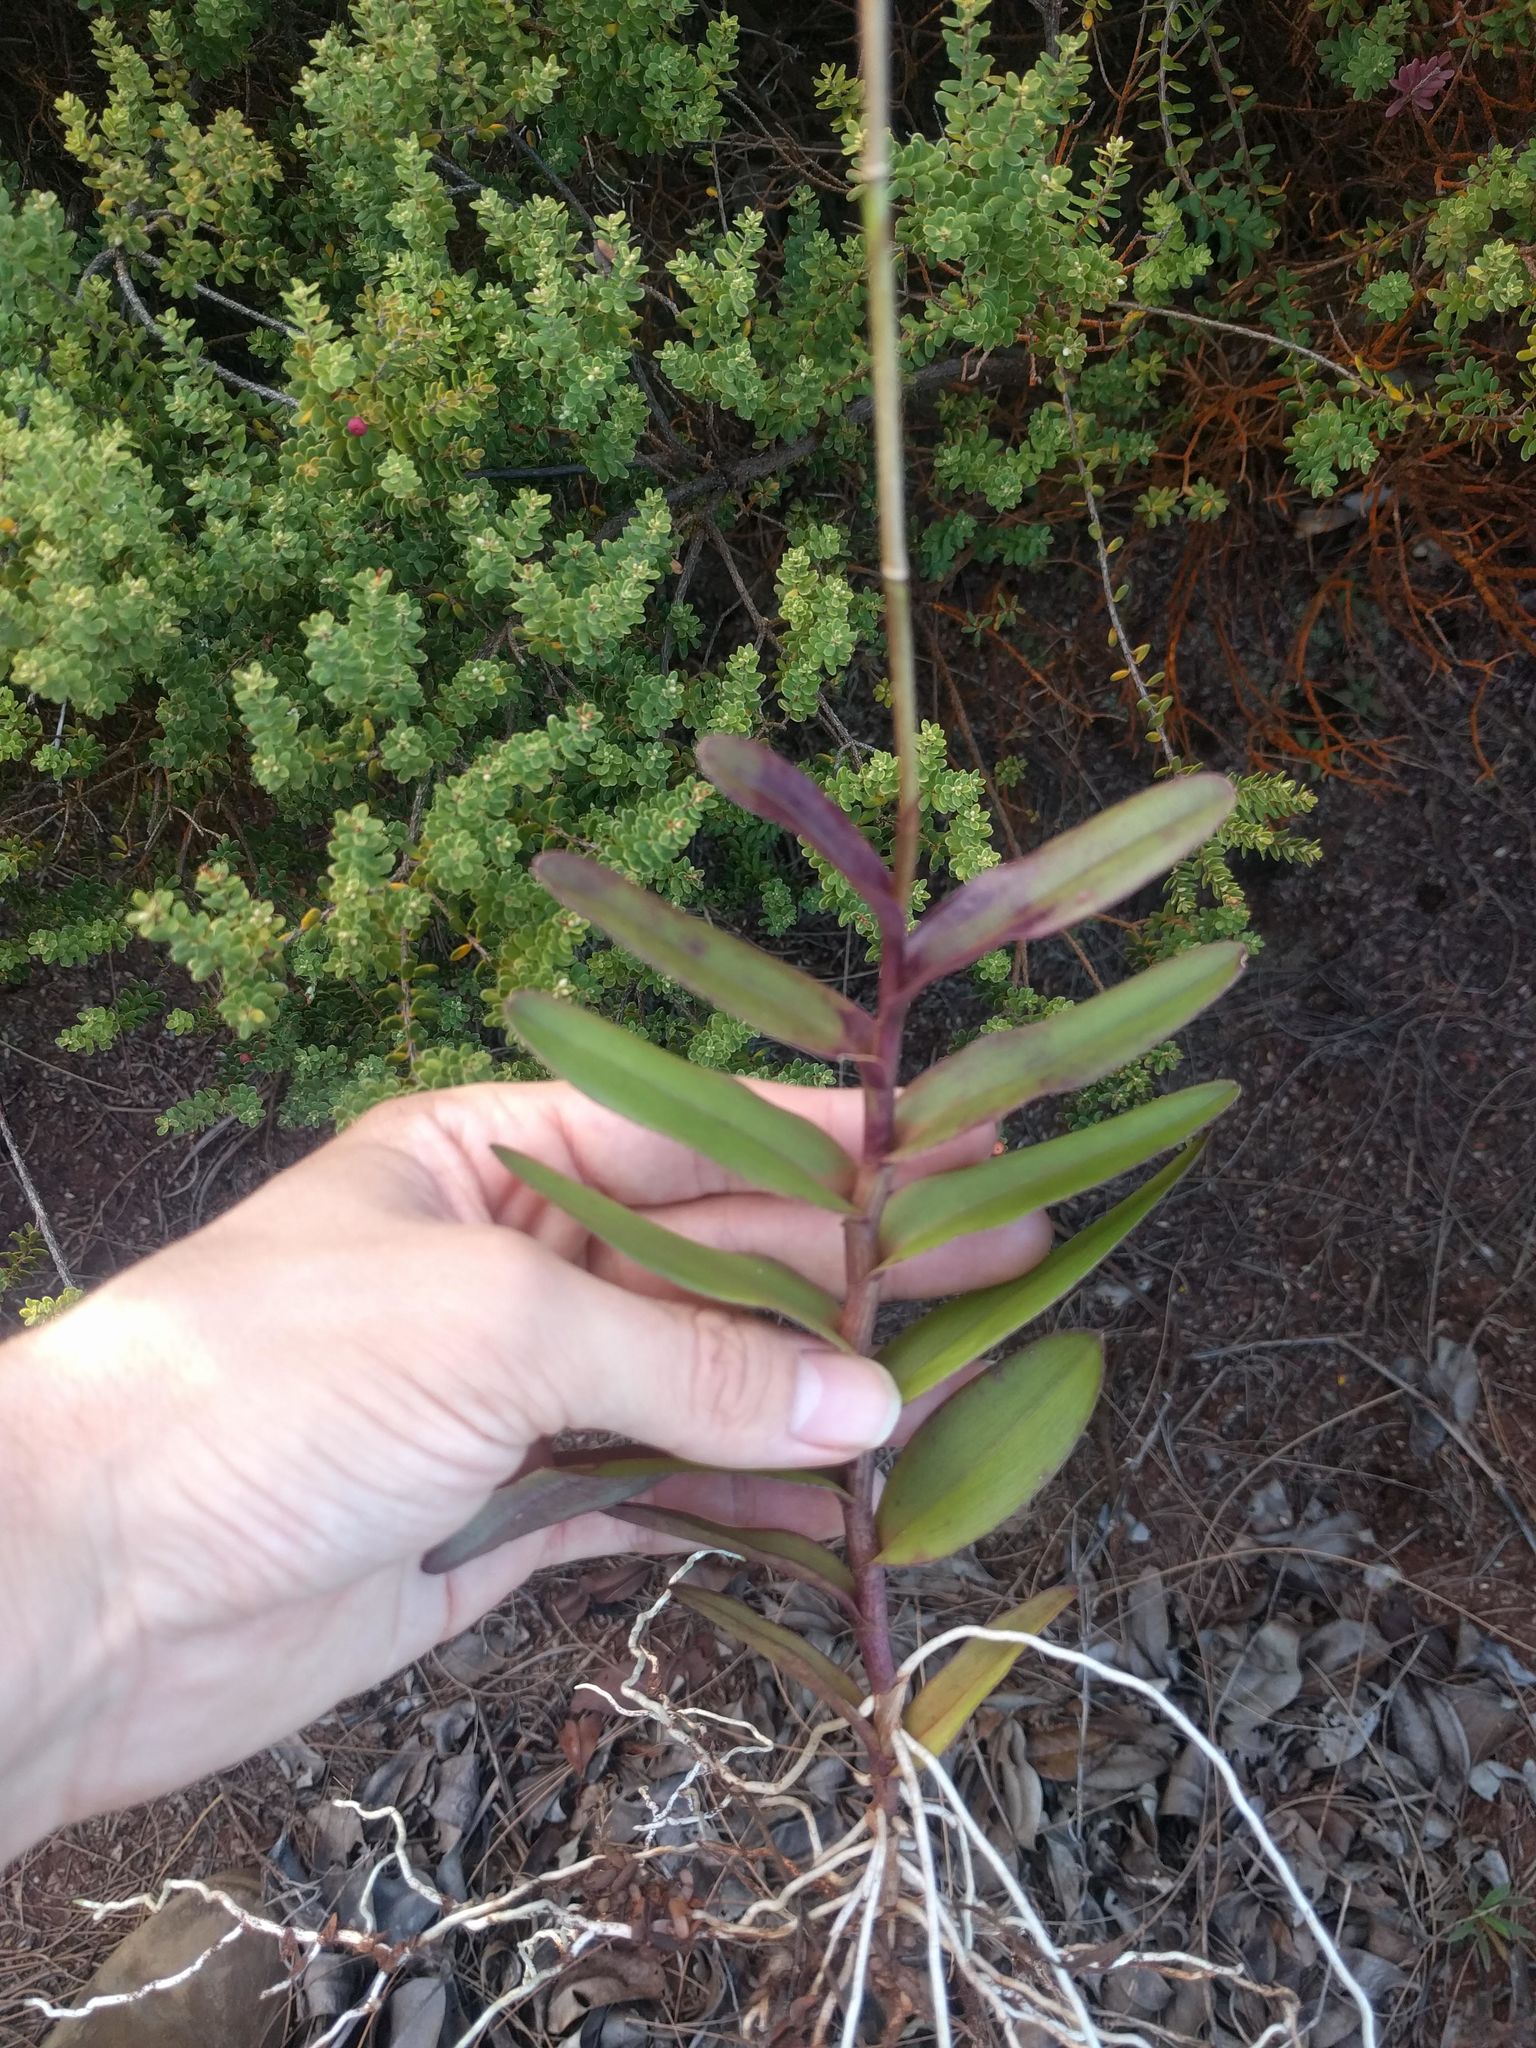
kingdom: Plantae
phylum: Tracheophyta
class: Liliopsida
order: Asparagales
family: Orchidaceae
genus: Epidendrum
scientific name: Epidendrum calanthum
